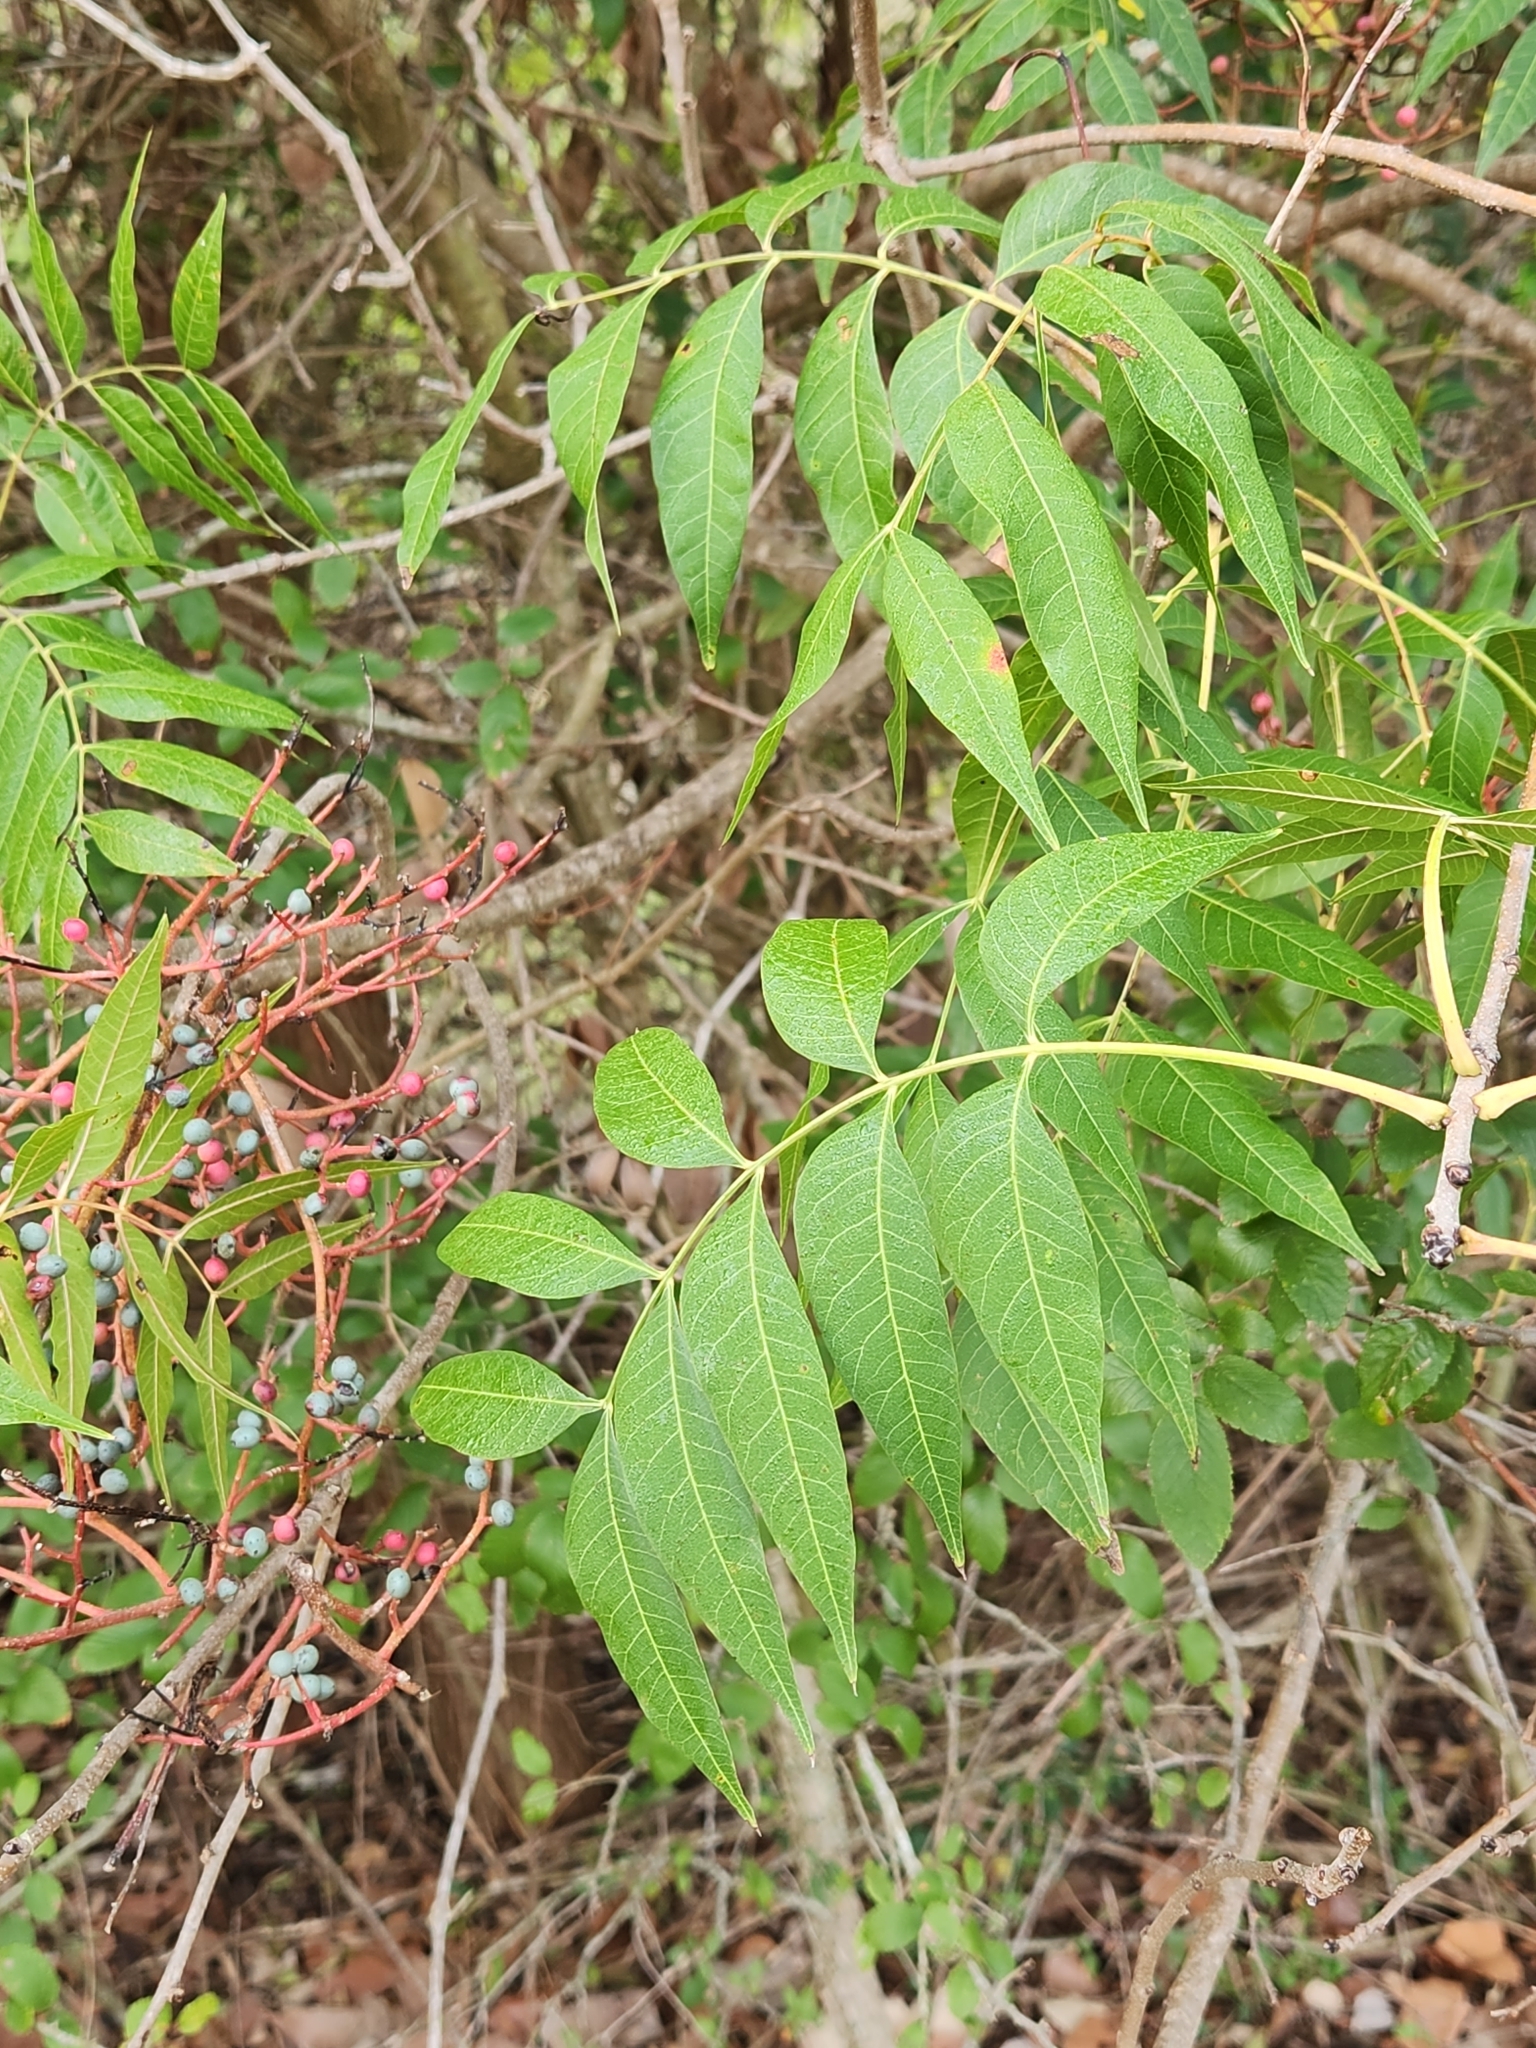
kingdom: Plantae
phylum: Tracheophyta
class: Magnoliopsida
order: Sapindales
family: Anacardiaceae
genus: Pistacia
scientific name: Pistacia chinensis
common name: Chinese pistache
